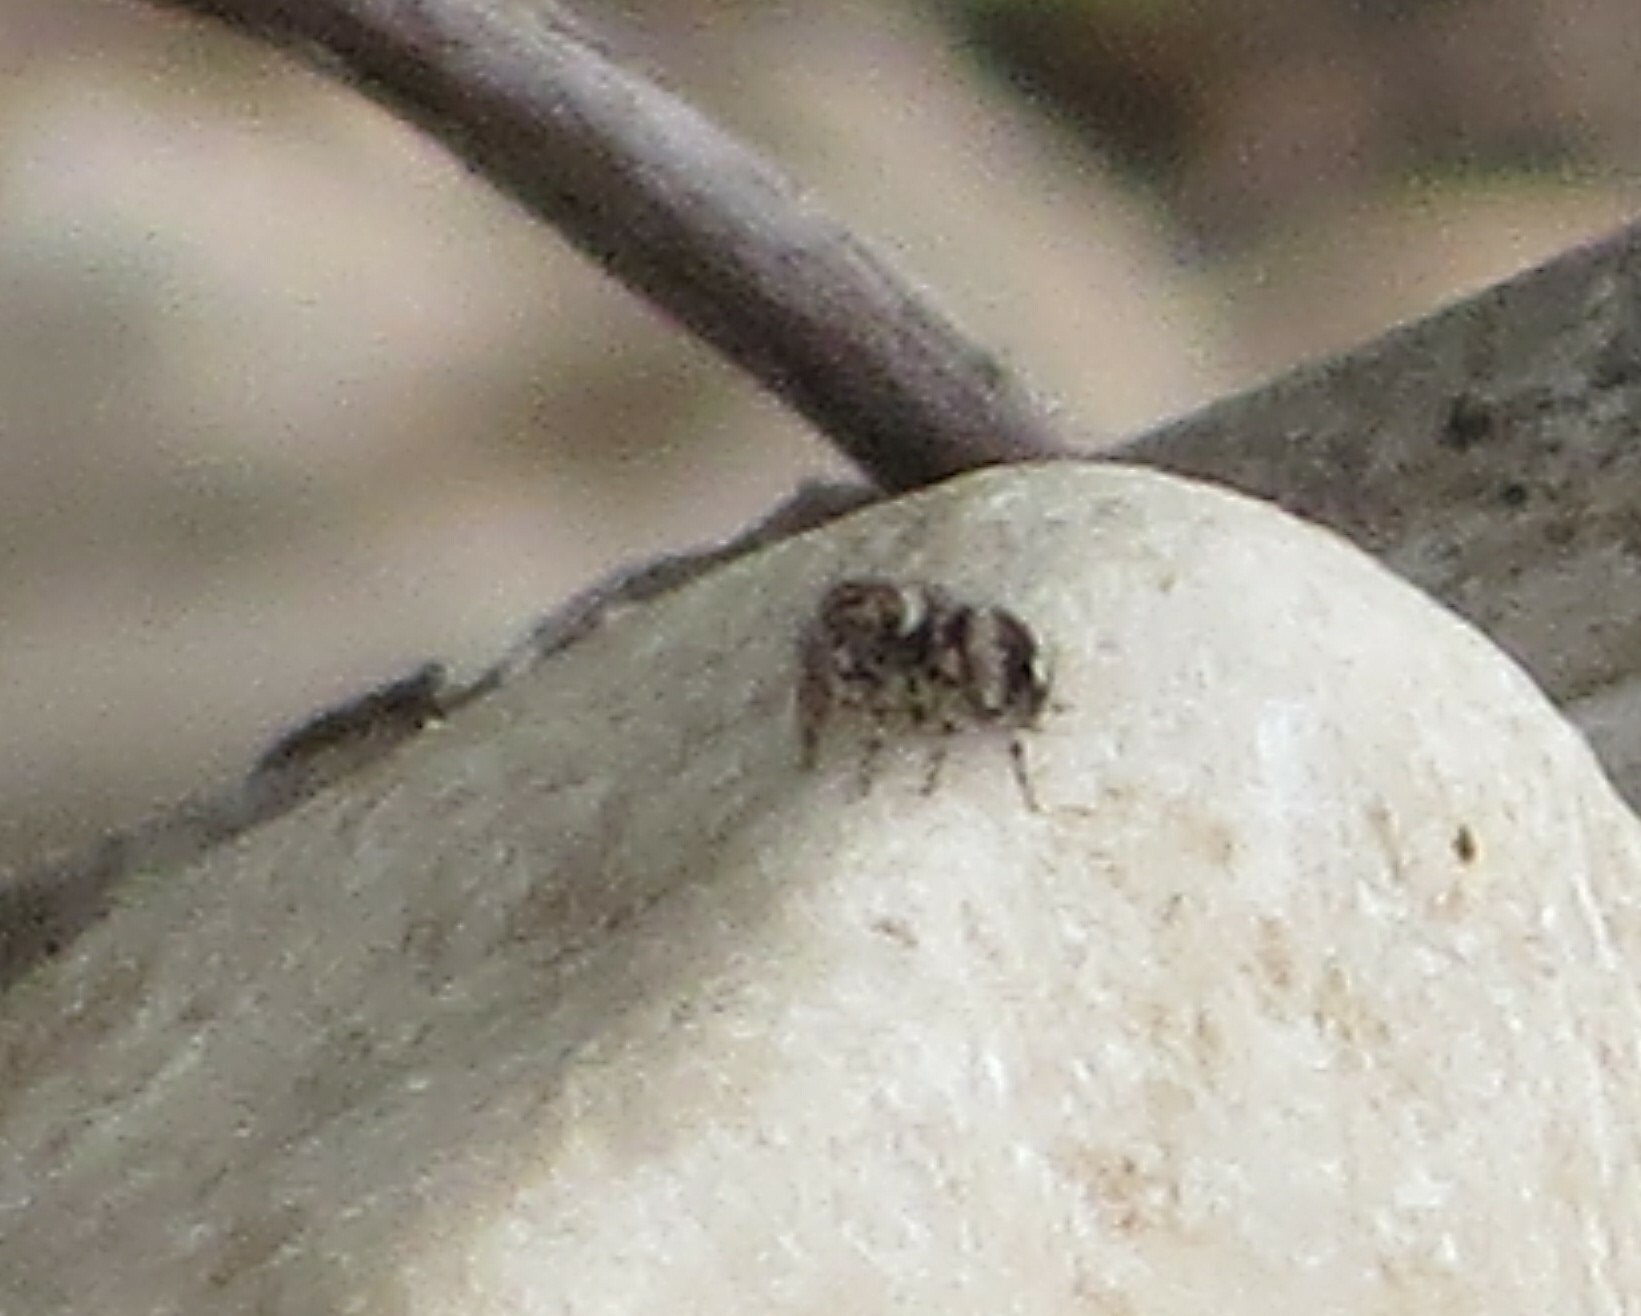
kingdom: Animalia
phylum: Arthropoda
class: Arachnida
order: Araneae
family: Salticidae
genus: Naphrys
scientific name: Naphrys acerba
